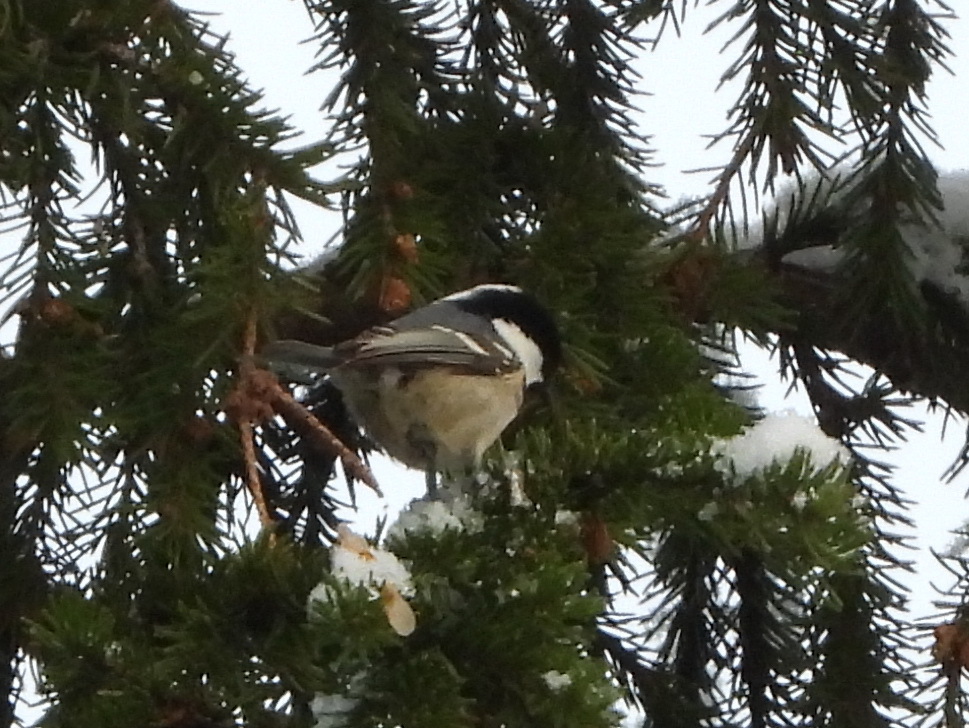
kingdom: Animalia
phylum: Chordata
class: Aves
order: Passeriformes
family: Paridae
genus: Periparus
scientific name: Periparus ater
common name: Coal tit
